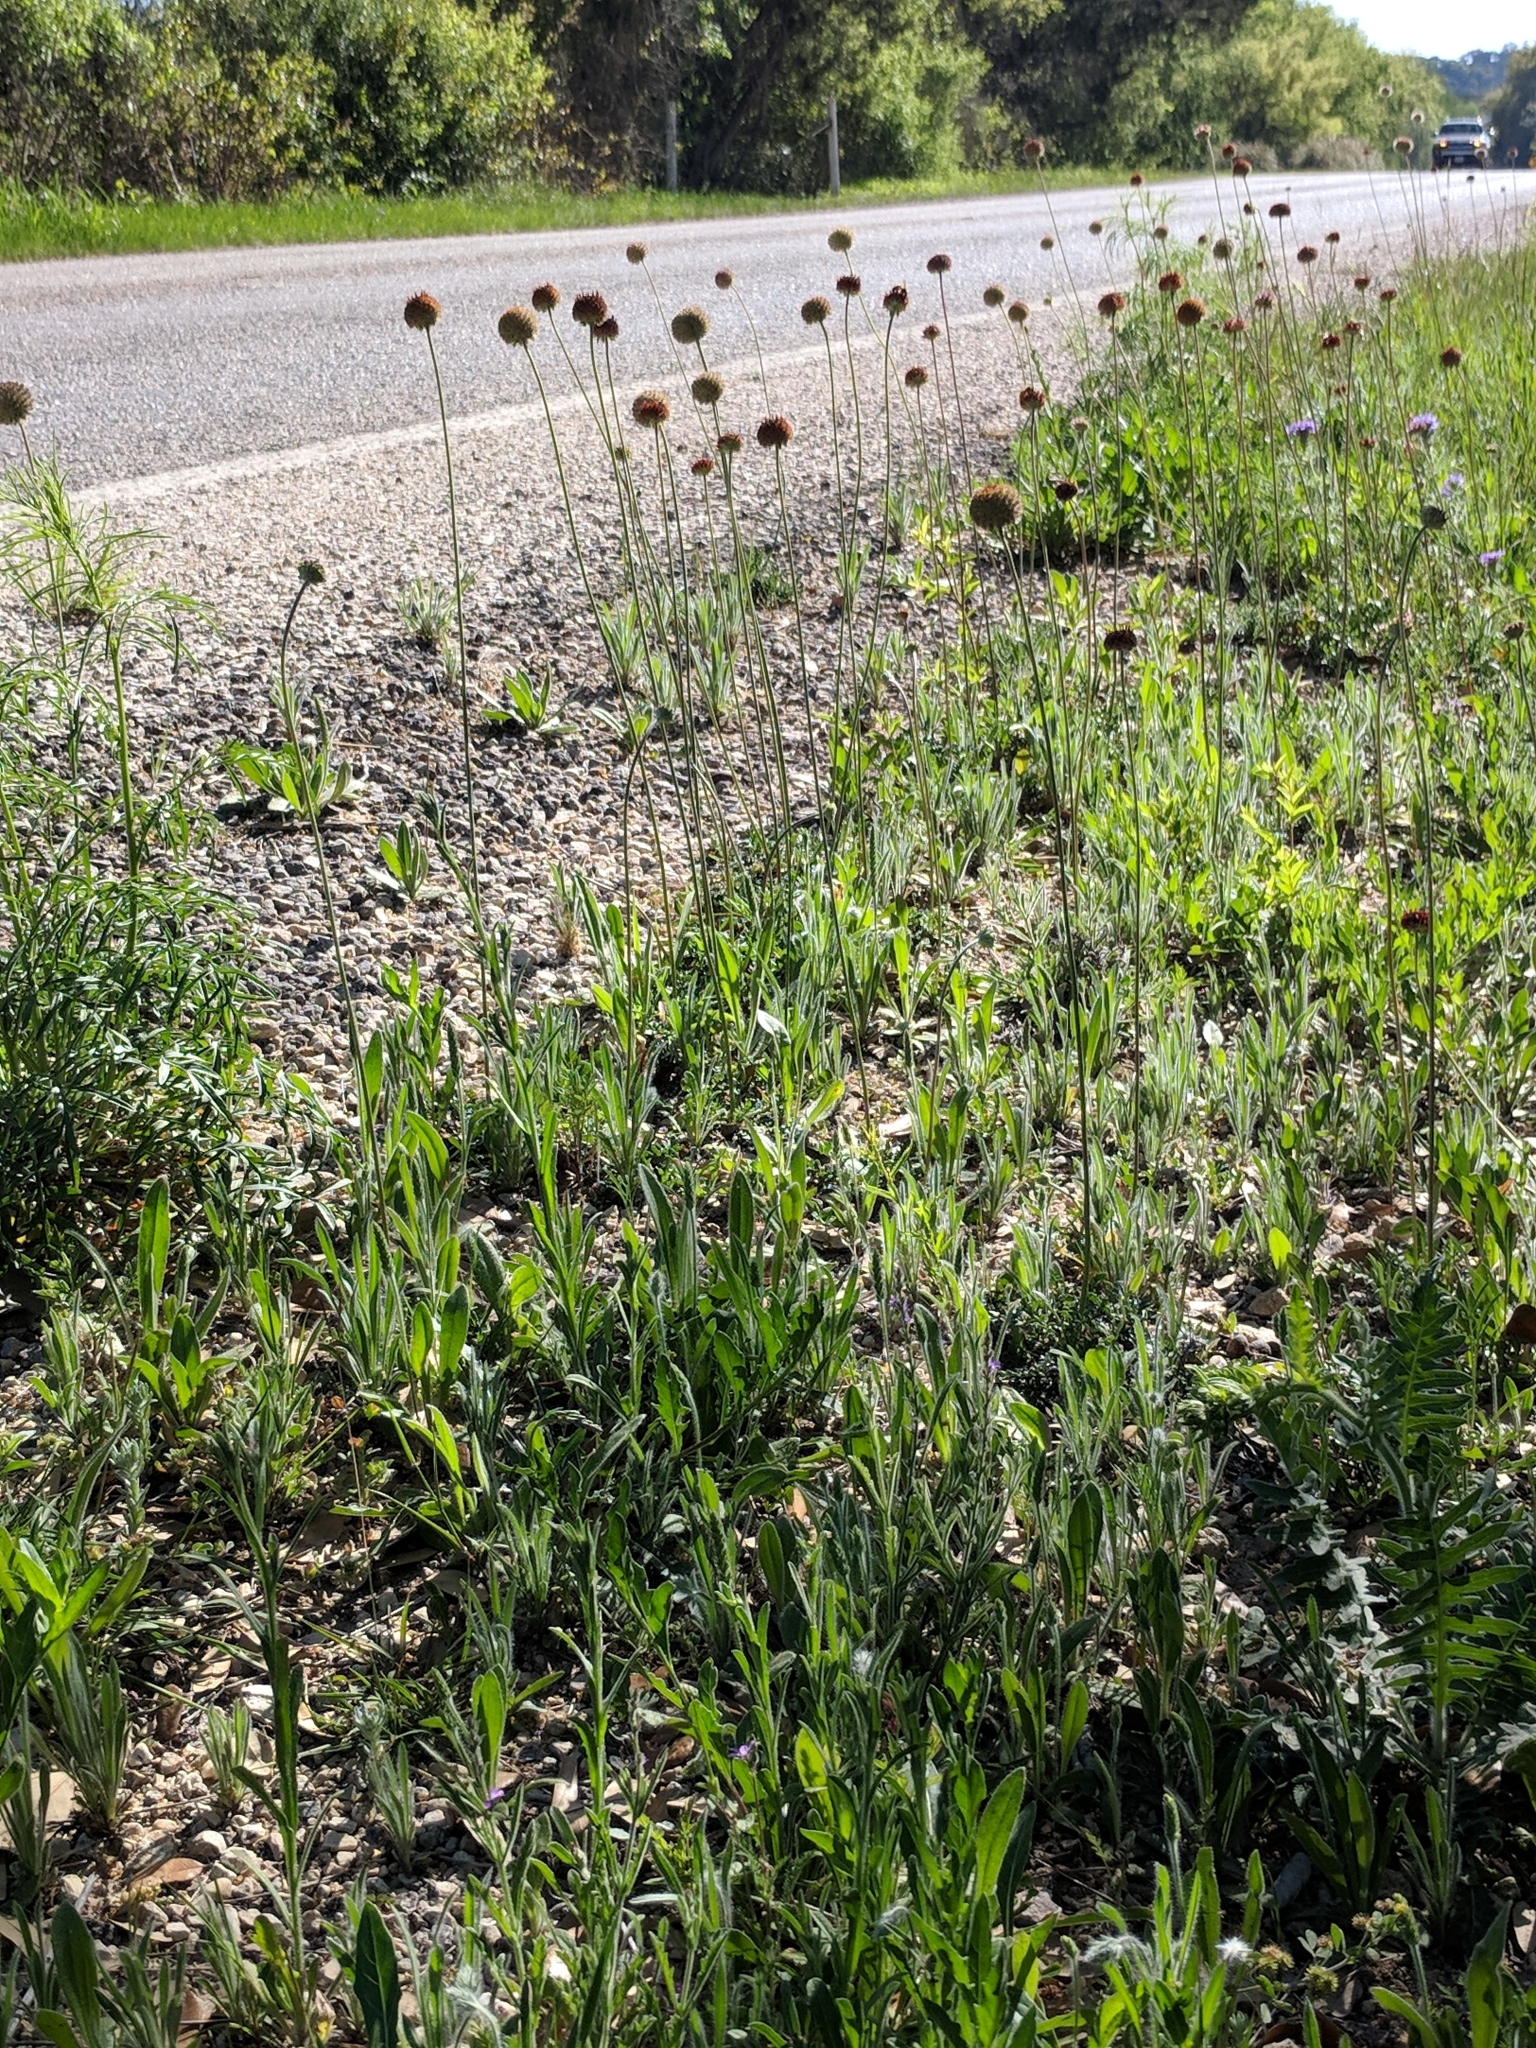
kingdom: Plantae
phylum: Tracheophyta
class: Magnoliopsida
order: Asterales
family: Asteraceae
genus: Gaillardia
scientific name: Gaillardia suavis
